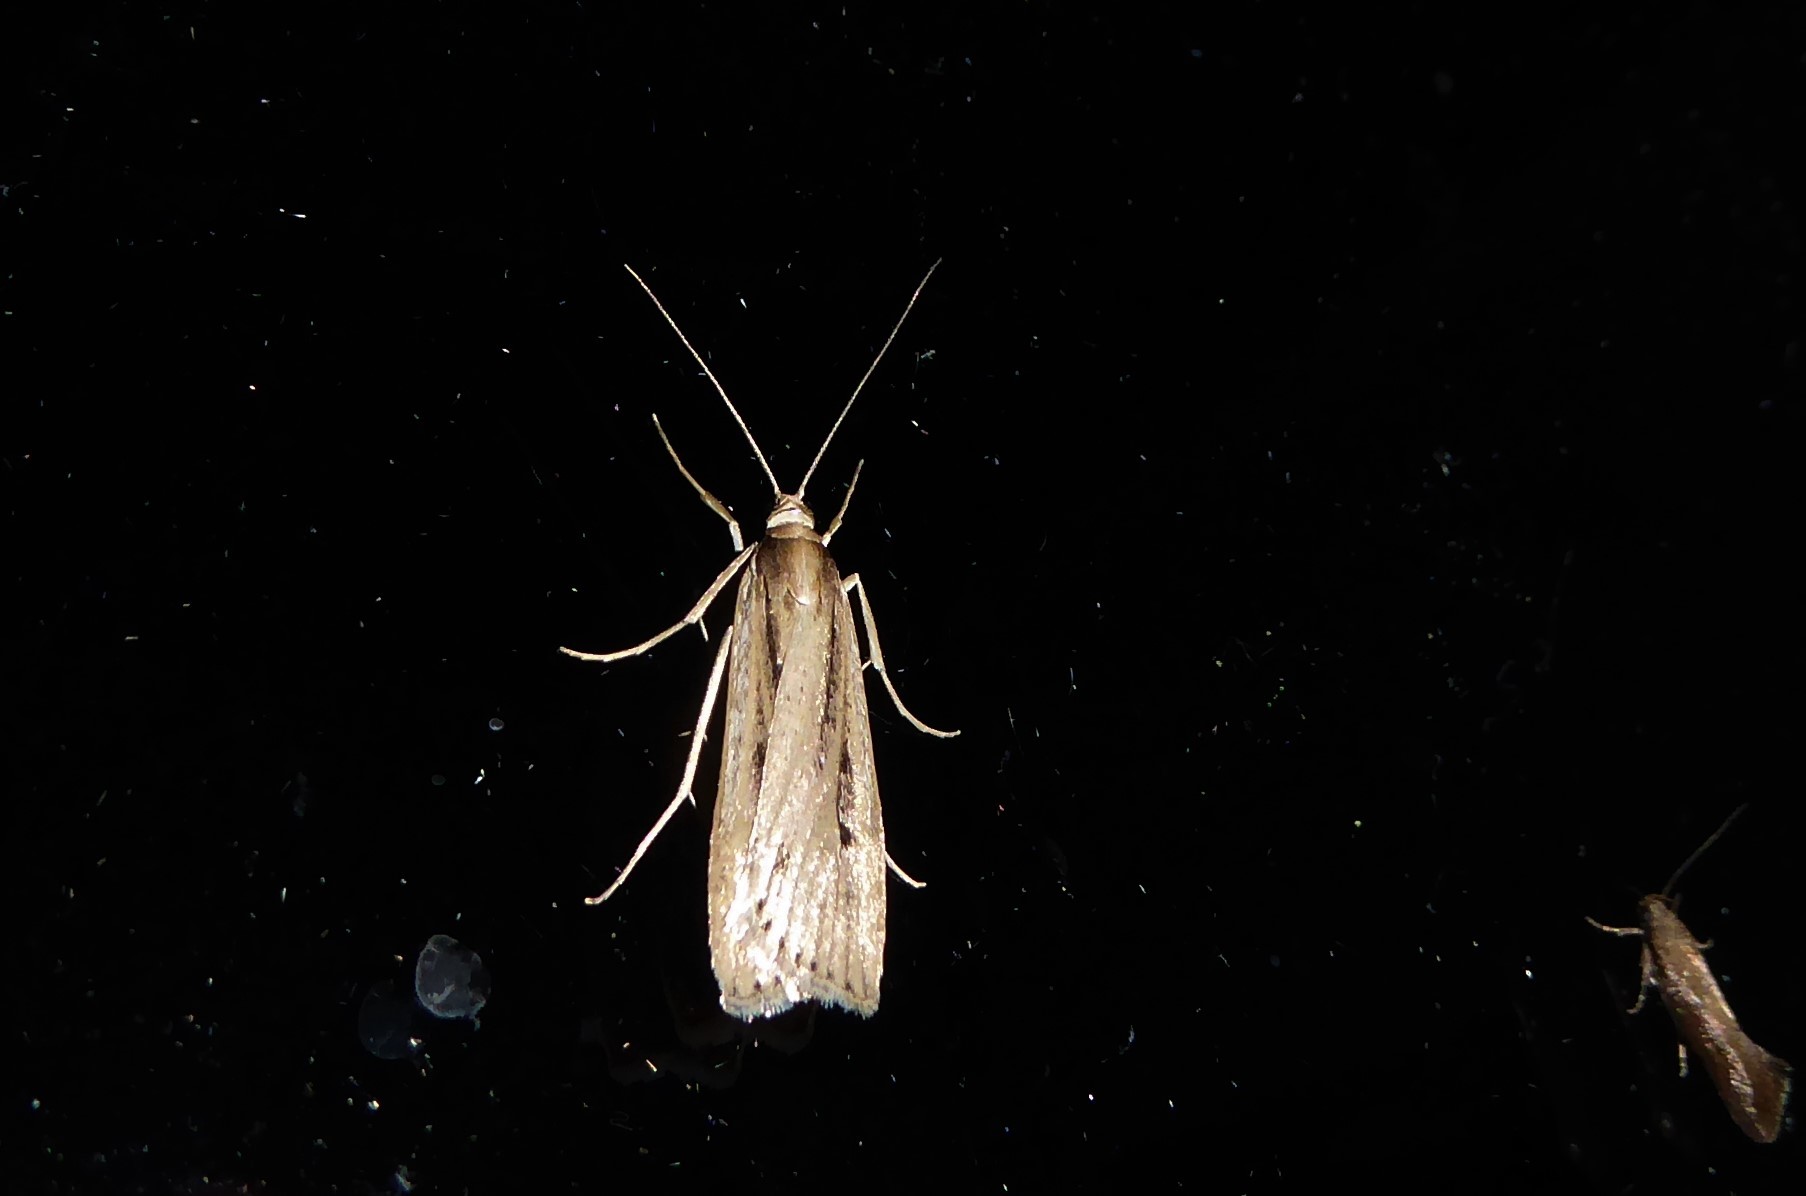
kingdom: Animalia
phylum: Arthropoda
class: Insecta
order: Lepidoptera
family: Crambidae
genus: Eudonia
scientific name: Eudonia sabulosella
